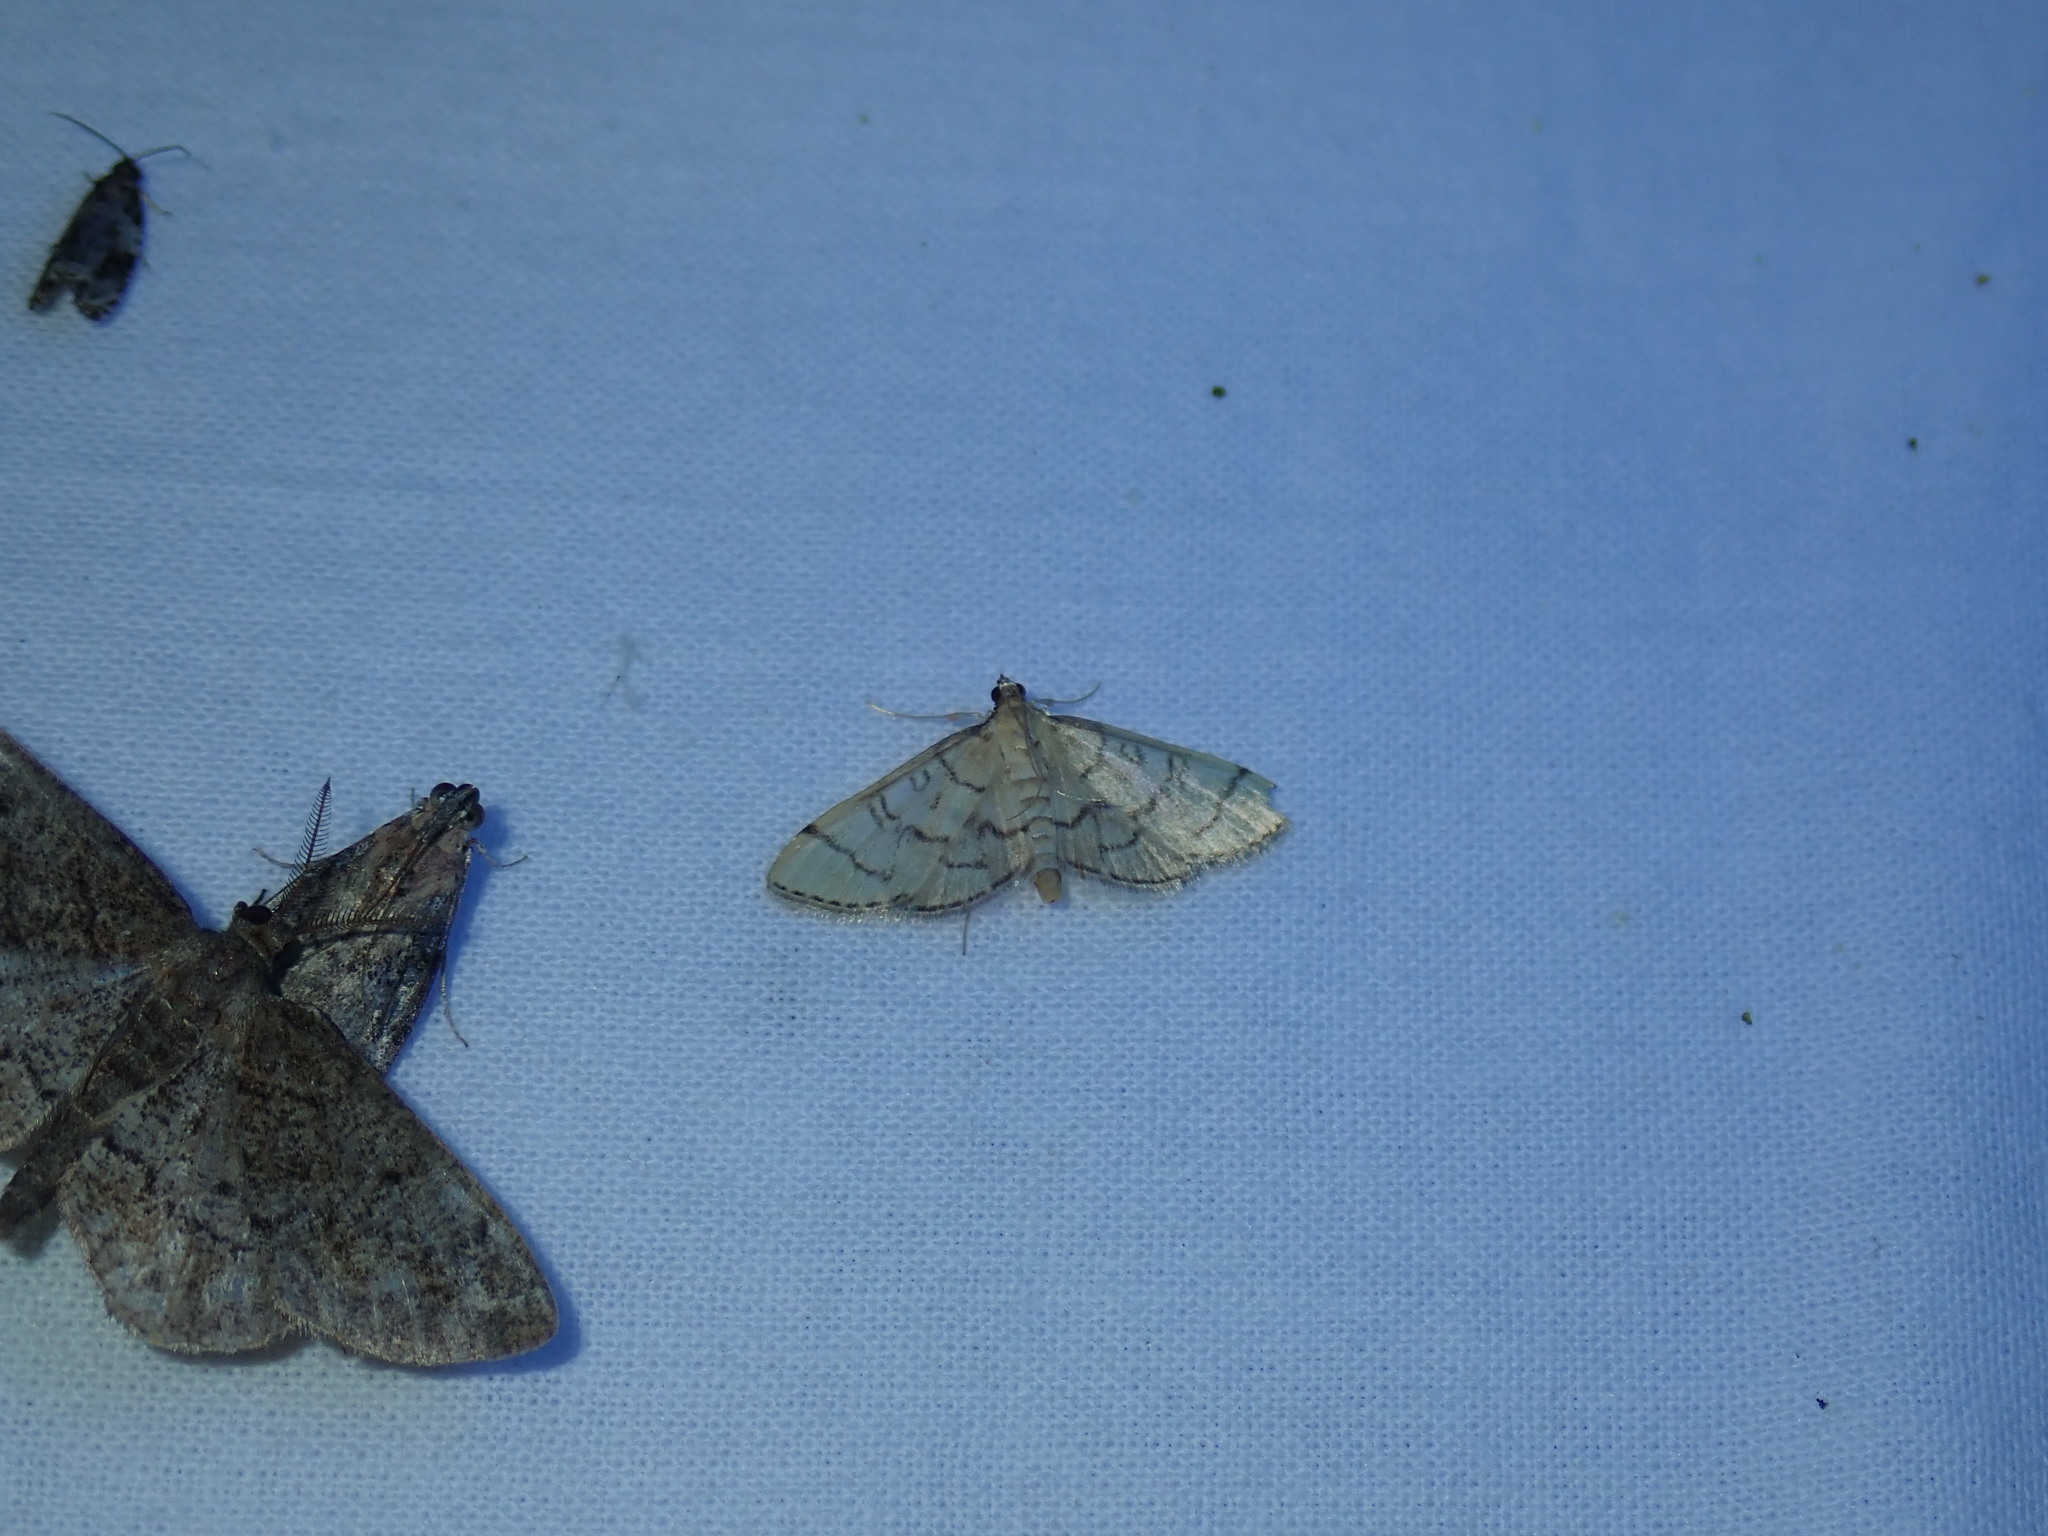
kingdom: Animalia
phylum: Arthropoda
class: Insecta
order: Lepidoptera
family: Crambidae
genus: Lamprosema
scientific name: Lamprosema Blepharomastix ranalis
